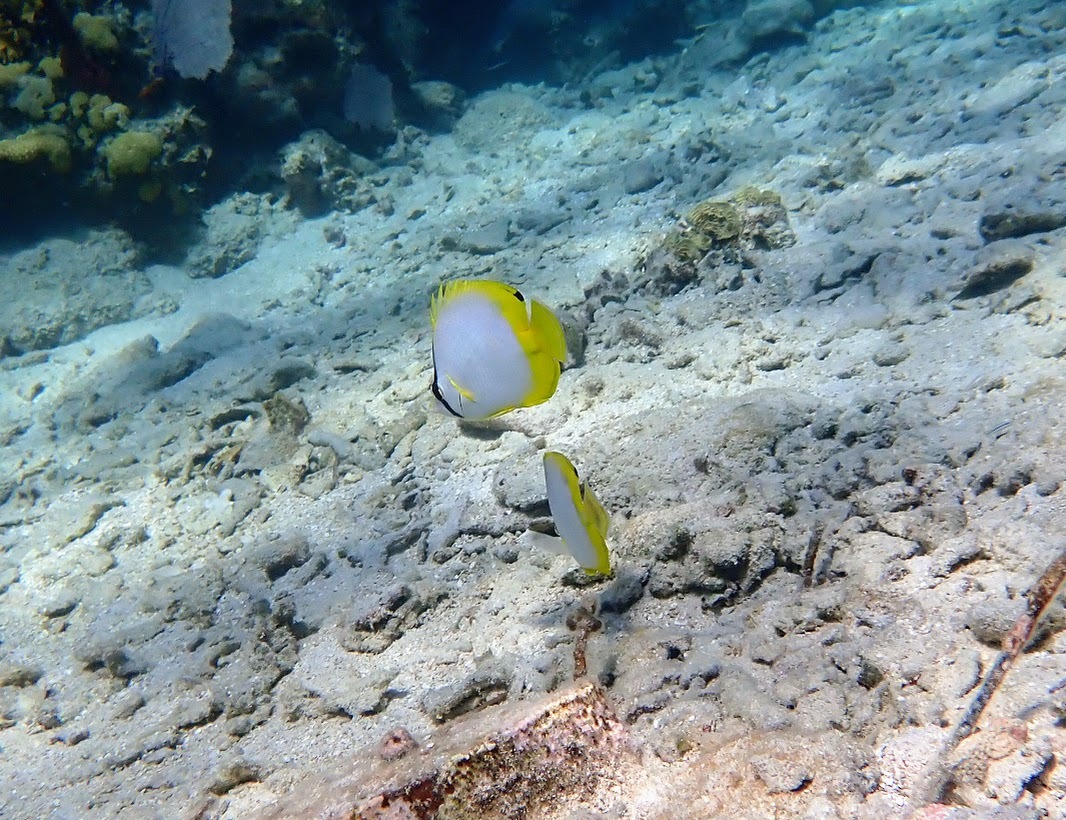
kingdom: Animalia
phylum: Chordata
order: Perciformes
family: Chaetodontidae
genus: Chaetodon
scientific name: Chaetodon ocellatus
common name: Spotfin butterflyfish
